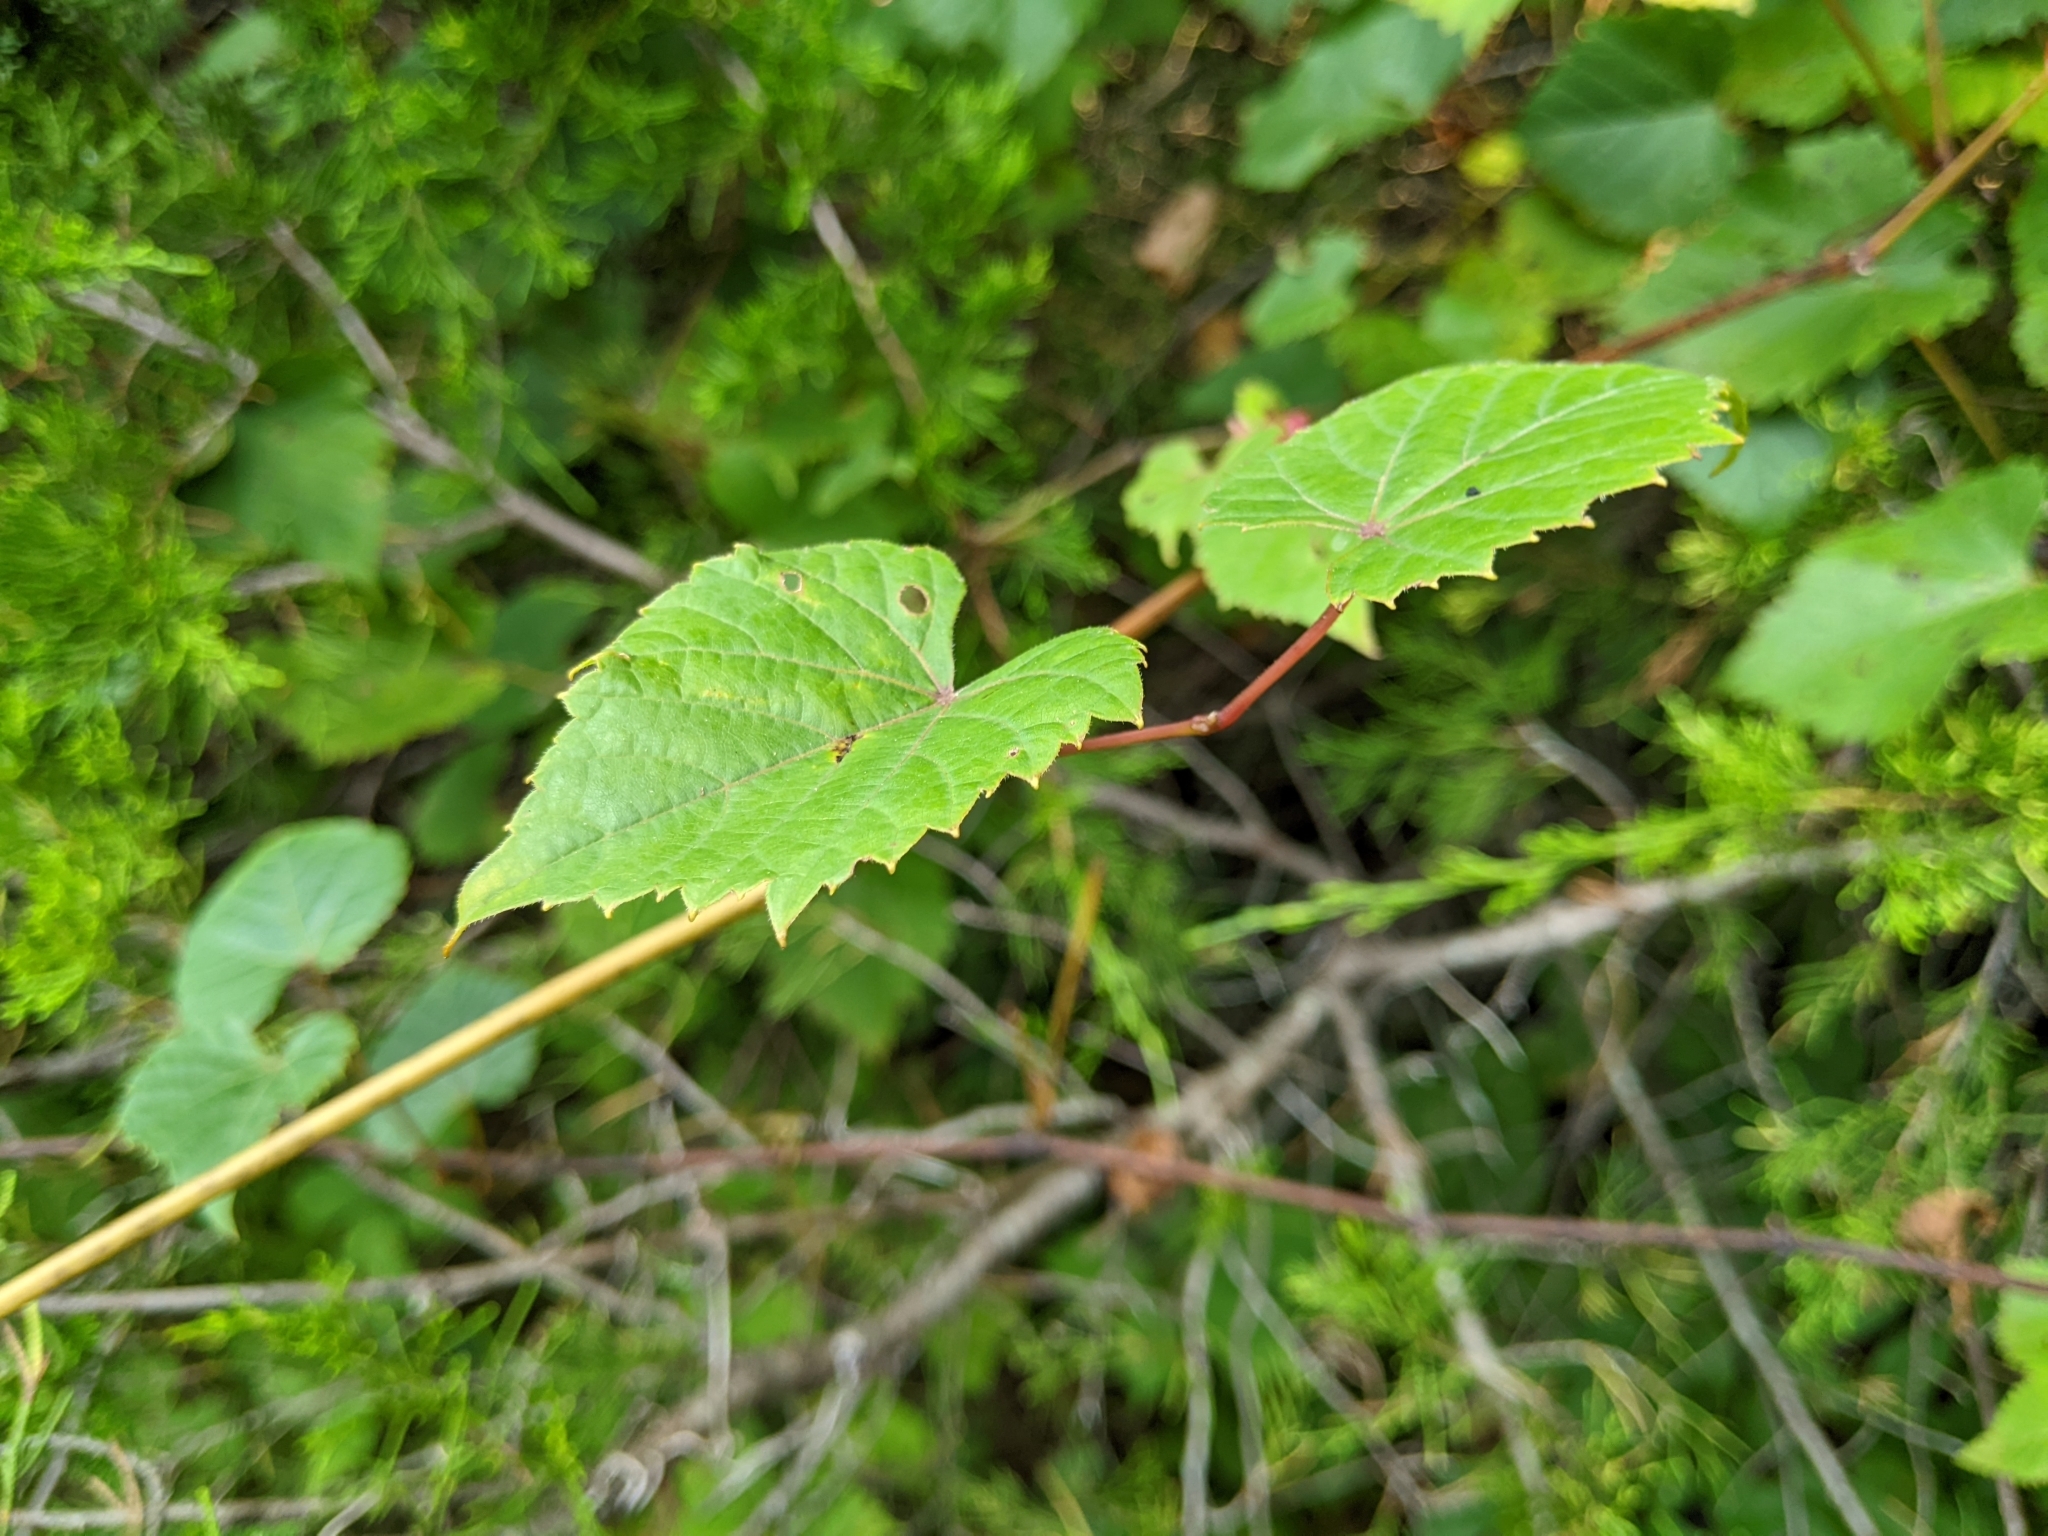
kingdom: Animalia
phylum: Arthropoda
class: Insecta
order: Diptera
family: Cecidomyiidae
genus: Ampelomyia
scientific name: Ampelomyia vitiscoryloides
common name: Grape filbert gall
